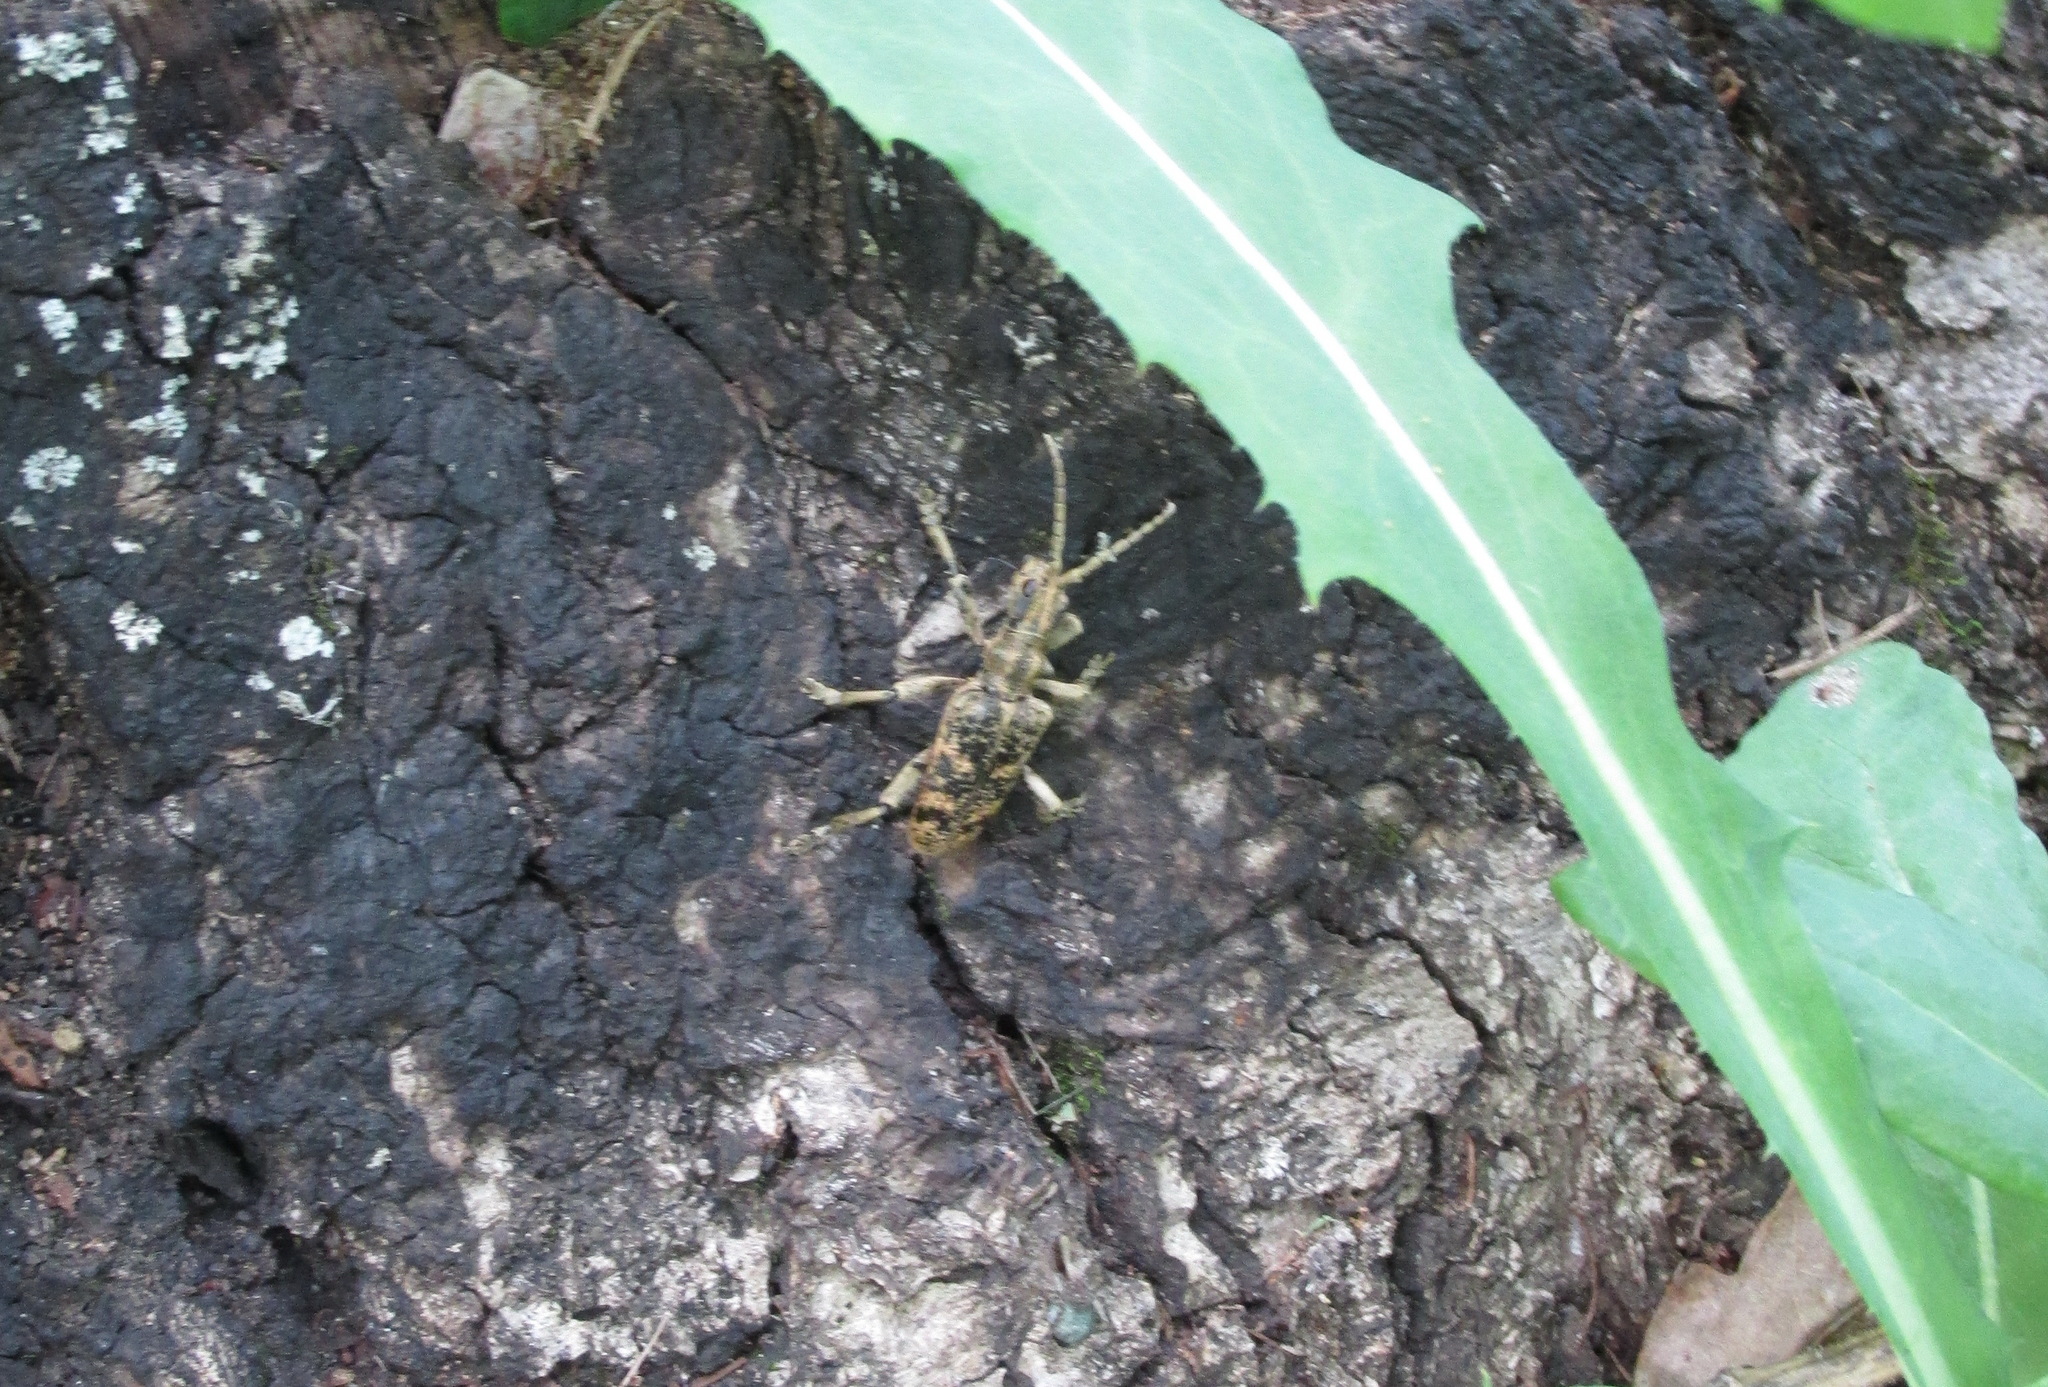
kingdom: Animalia
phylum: Arthropoda
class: Insecta
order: Coleoptera
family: Cerambycidae
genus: Rhagium
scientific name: Rhagium mordax
